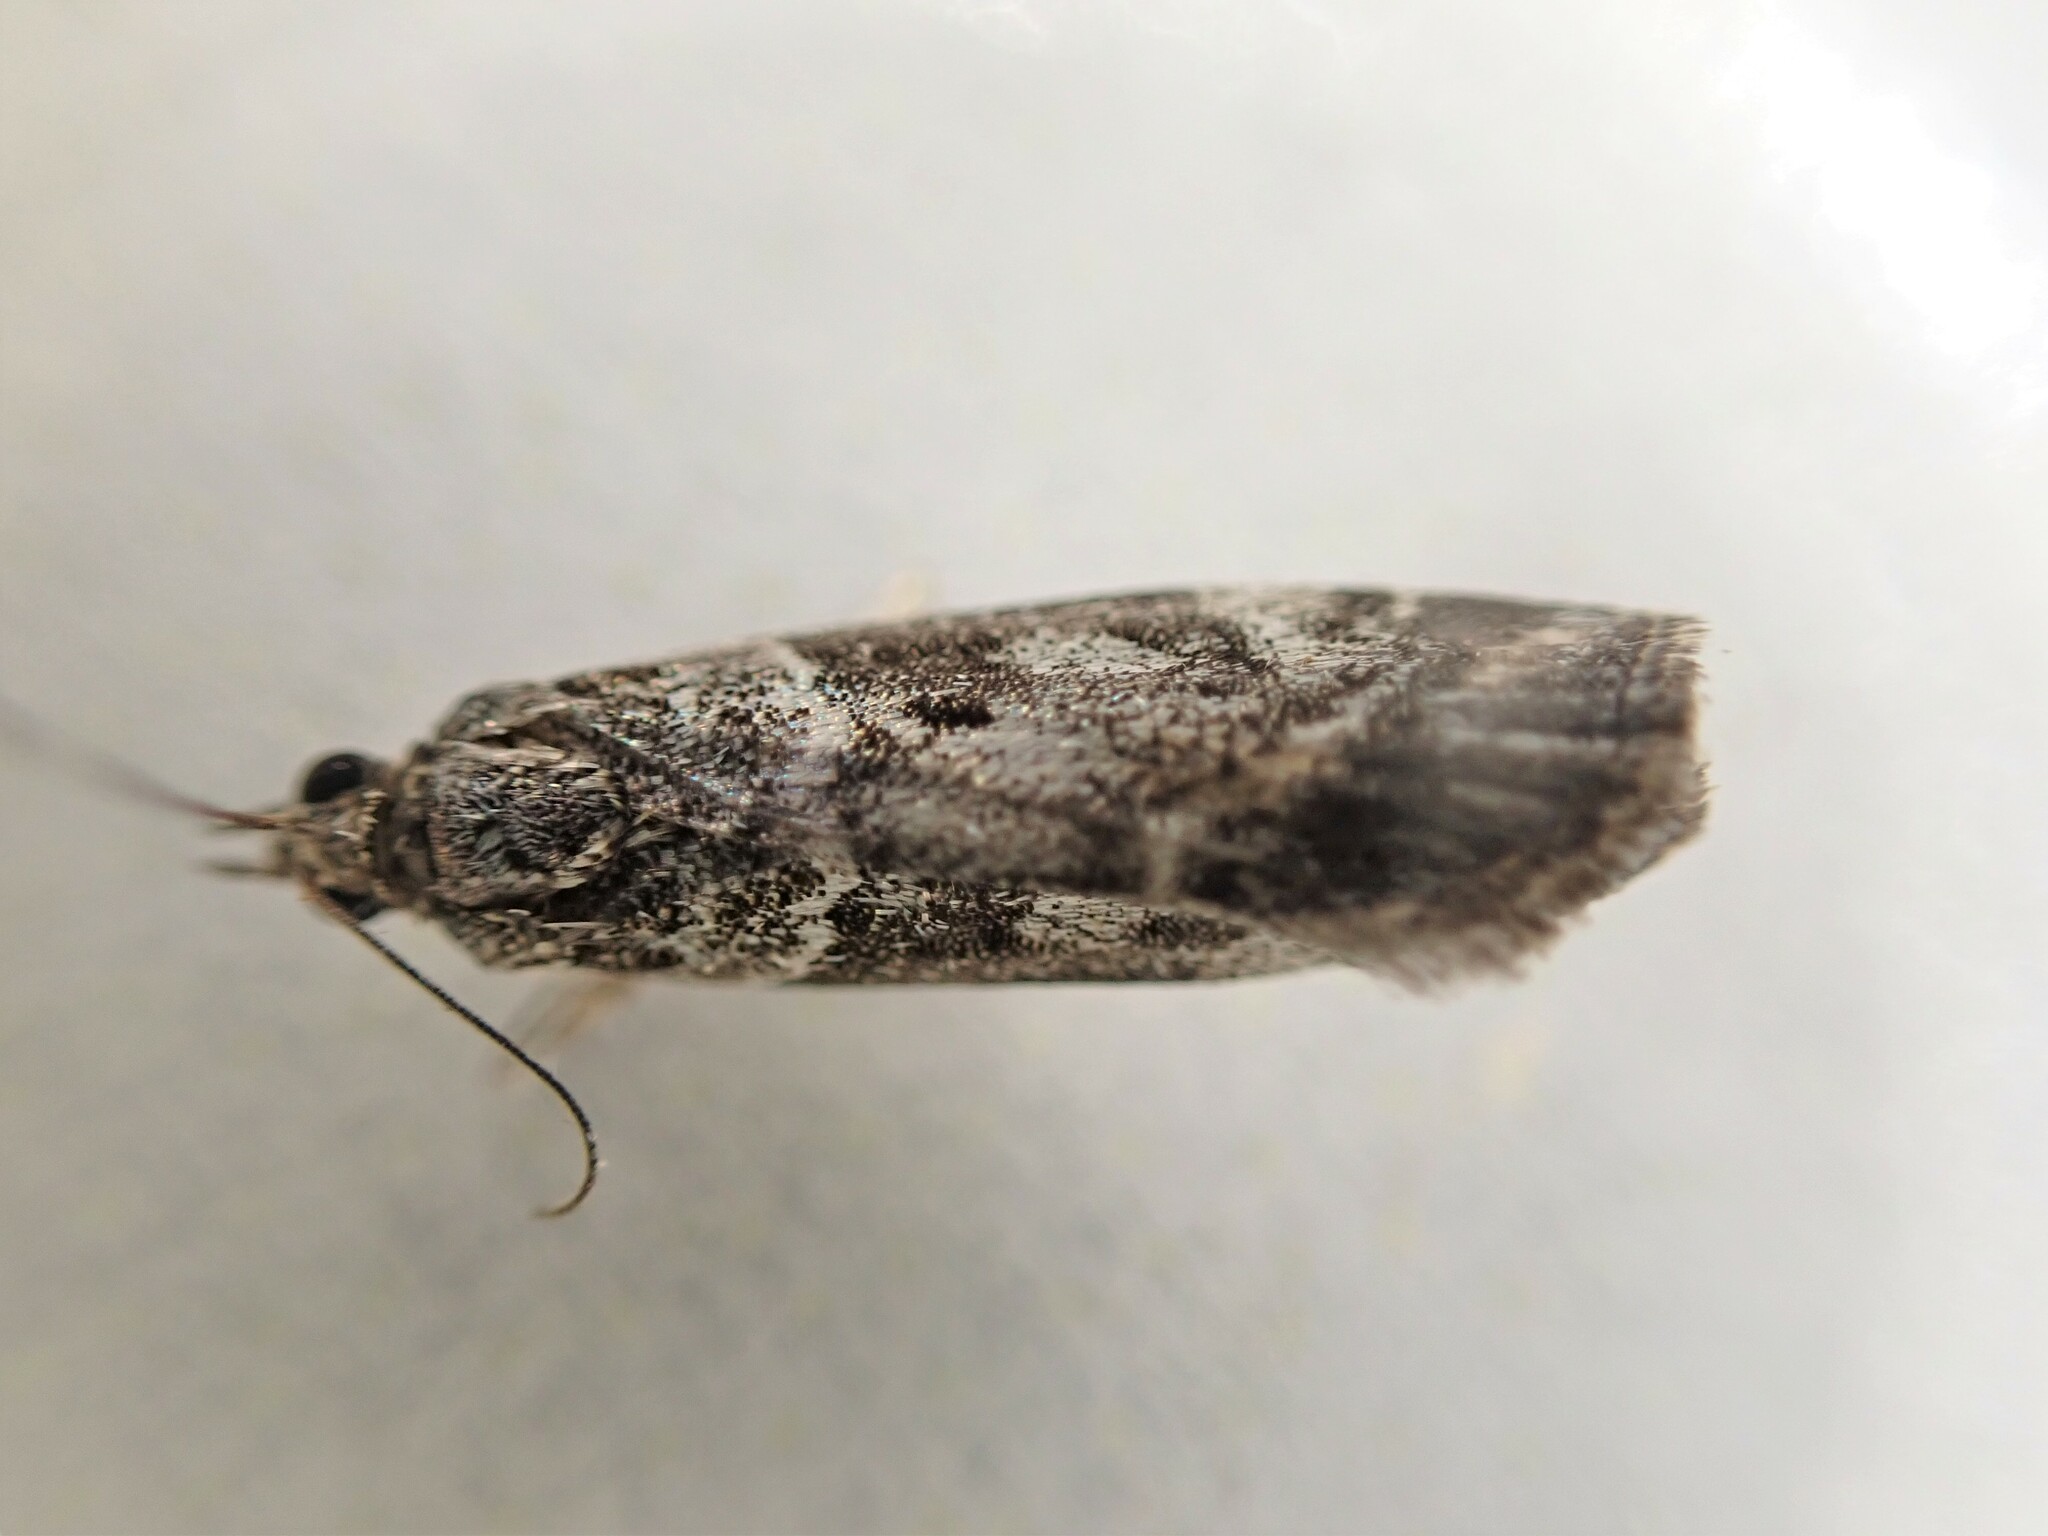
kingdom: Animalia
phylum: Arthropoda
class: Insecta
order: Lepidoptera
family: Crambidae
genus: Eudonia
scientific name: Eudonia submarginalis
